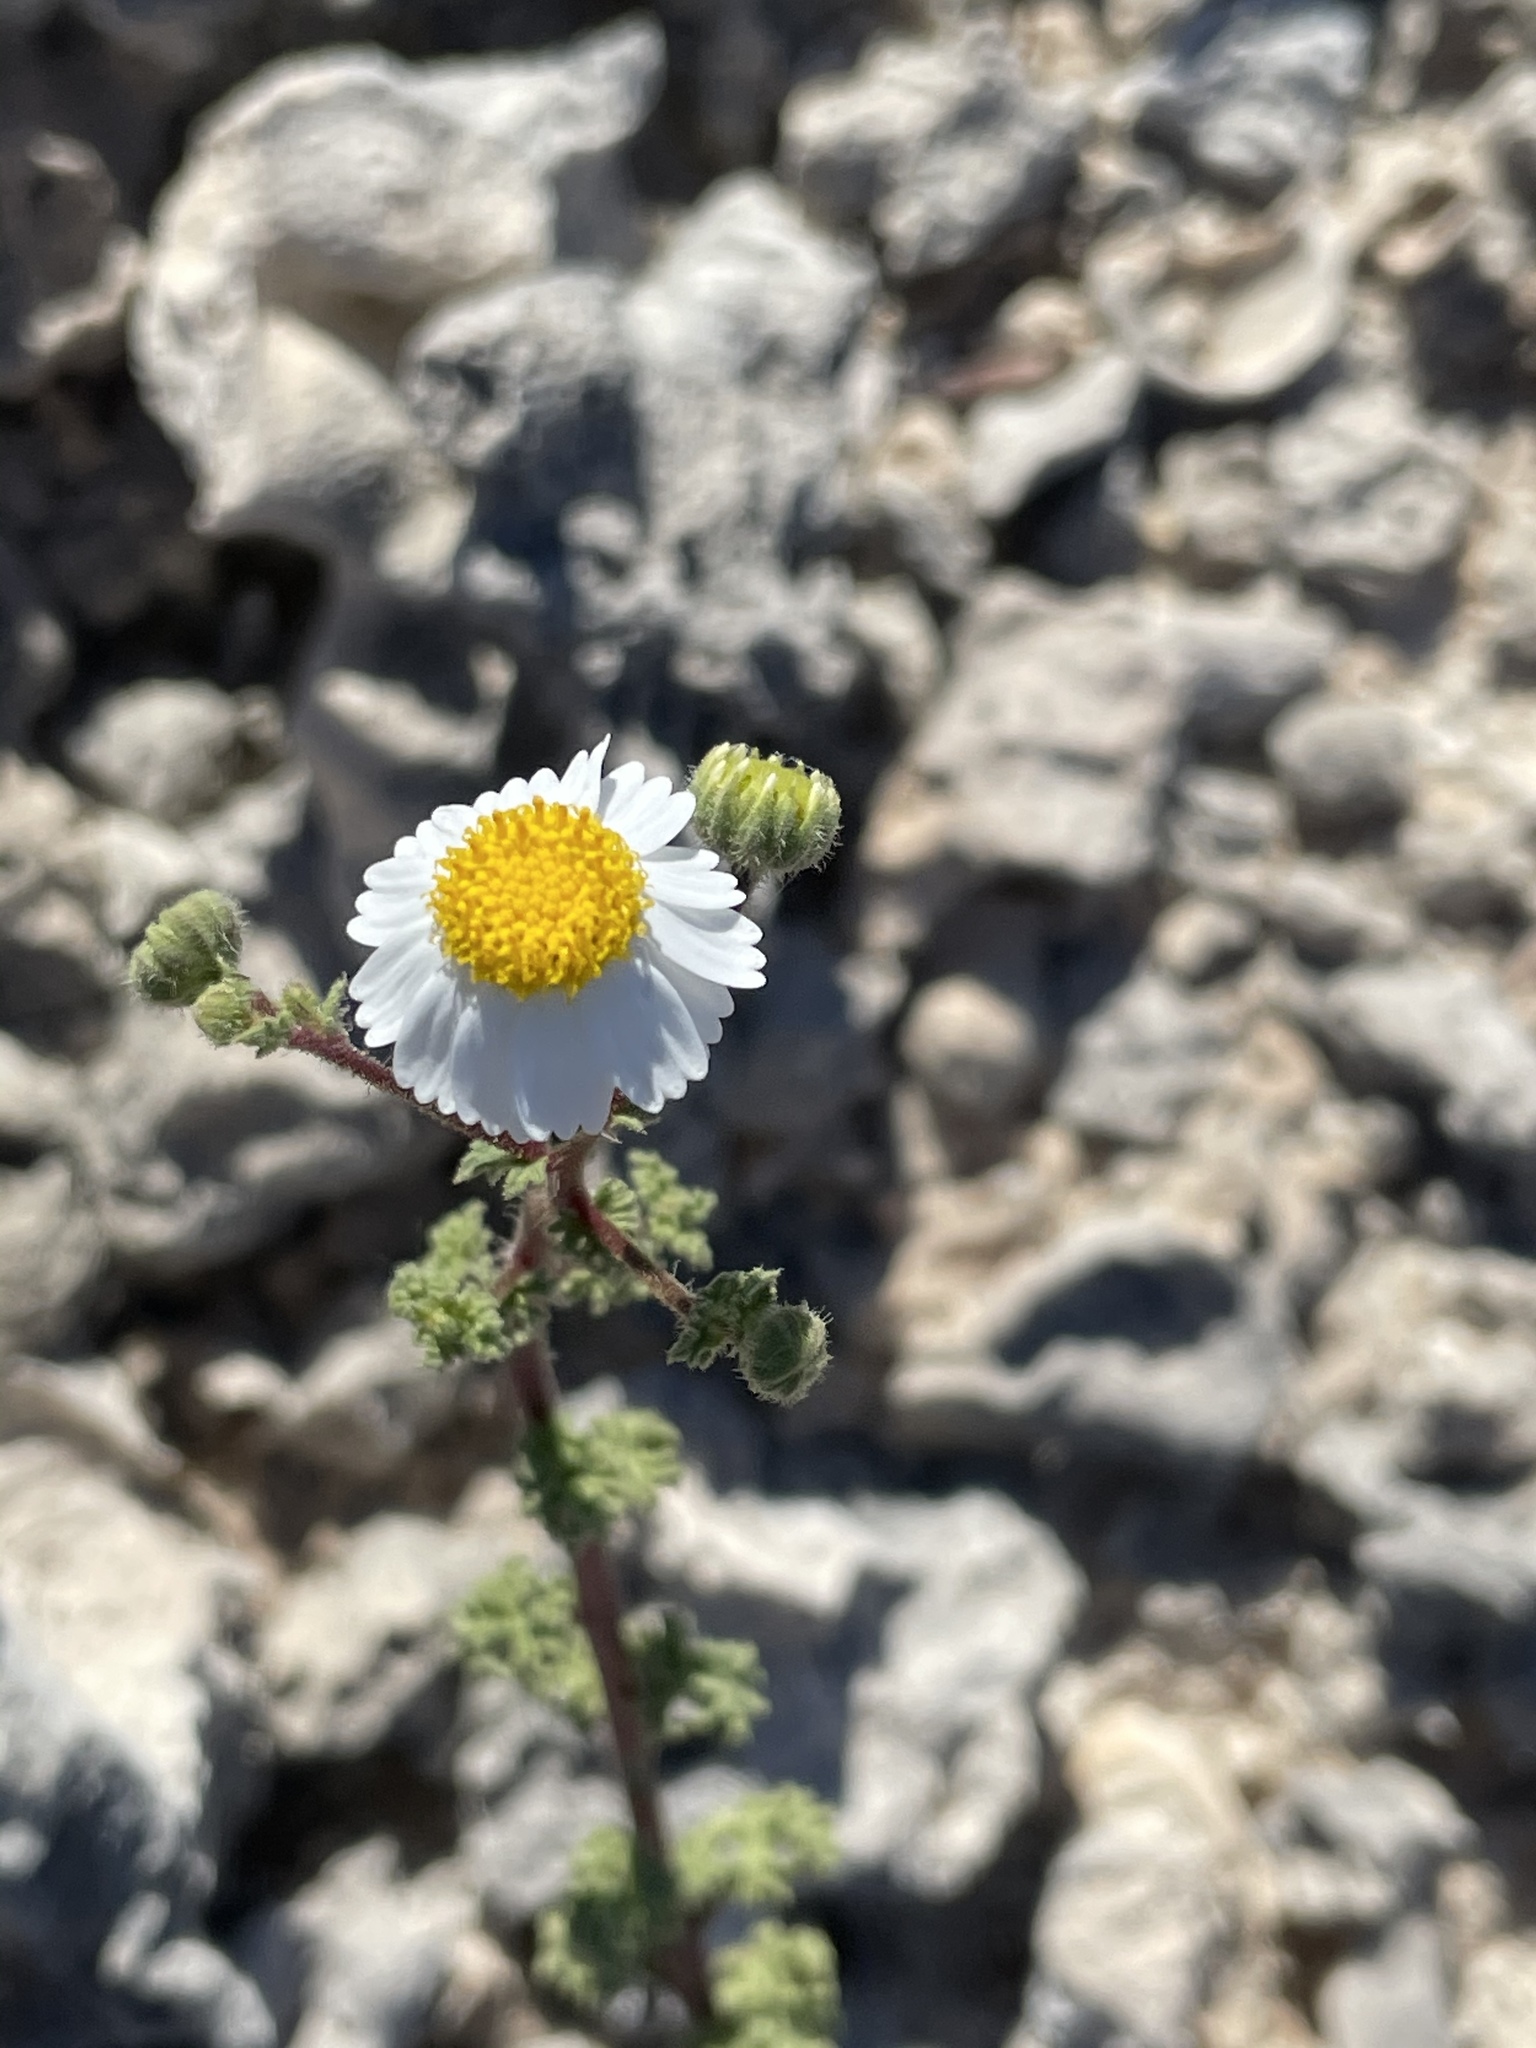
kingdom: Plantae
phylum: Tracheophyta
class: Magnoliopsida
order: Asterales
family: Asteraceae
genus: Perityle
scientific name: Perityle crassifolia
